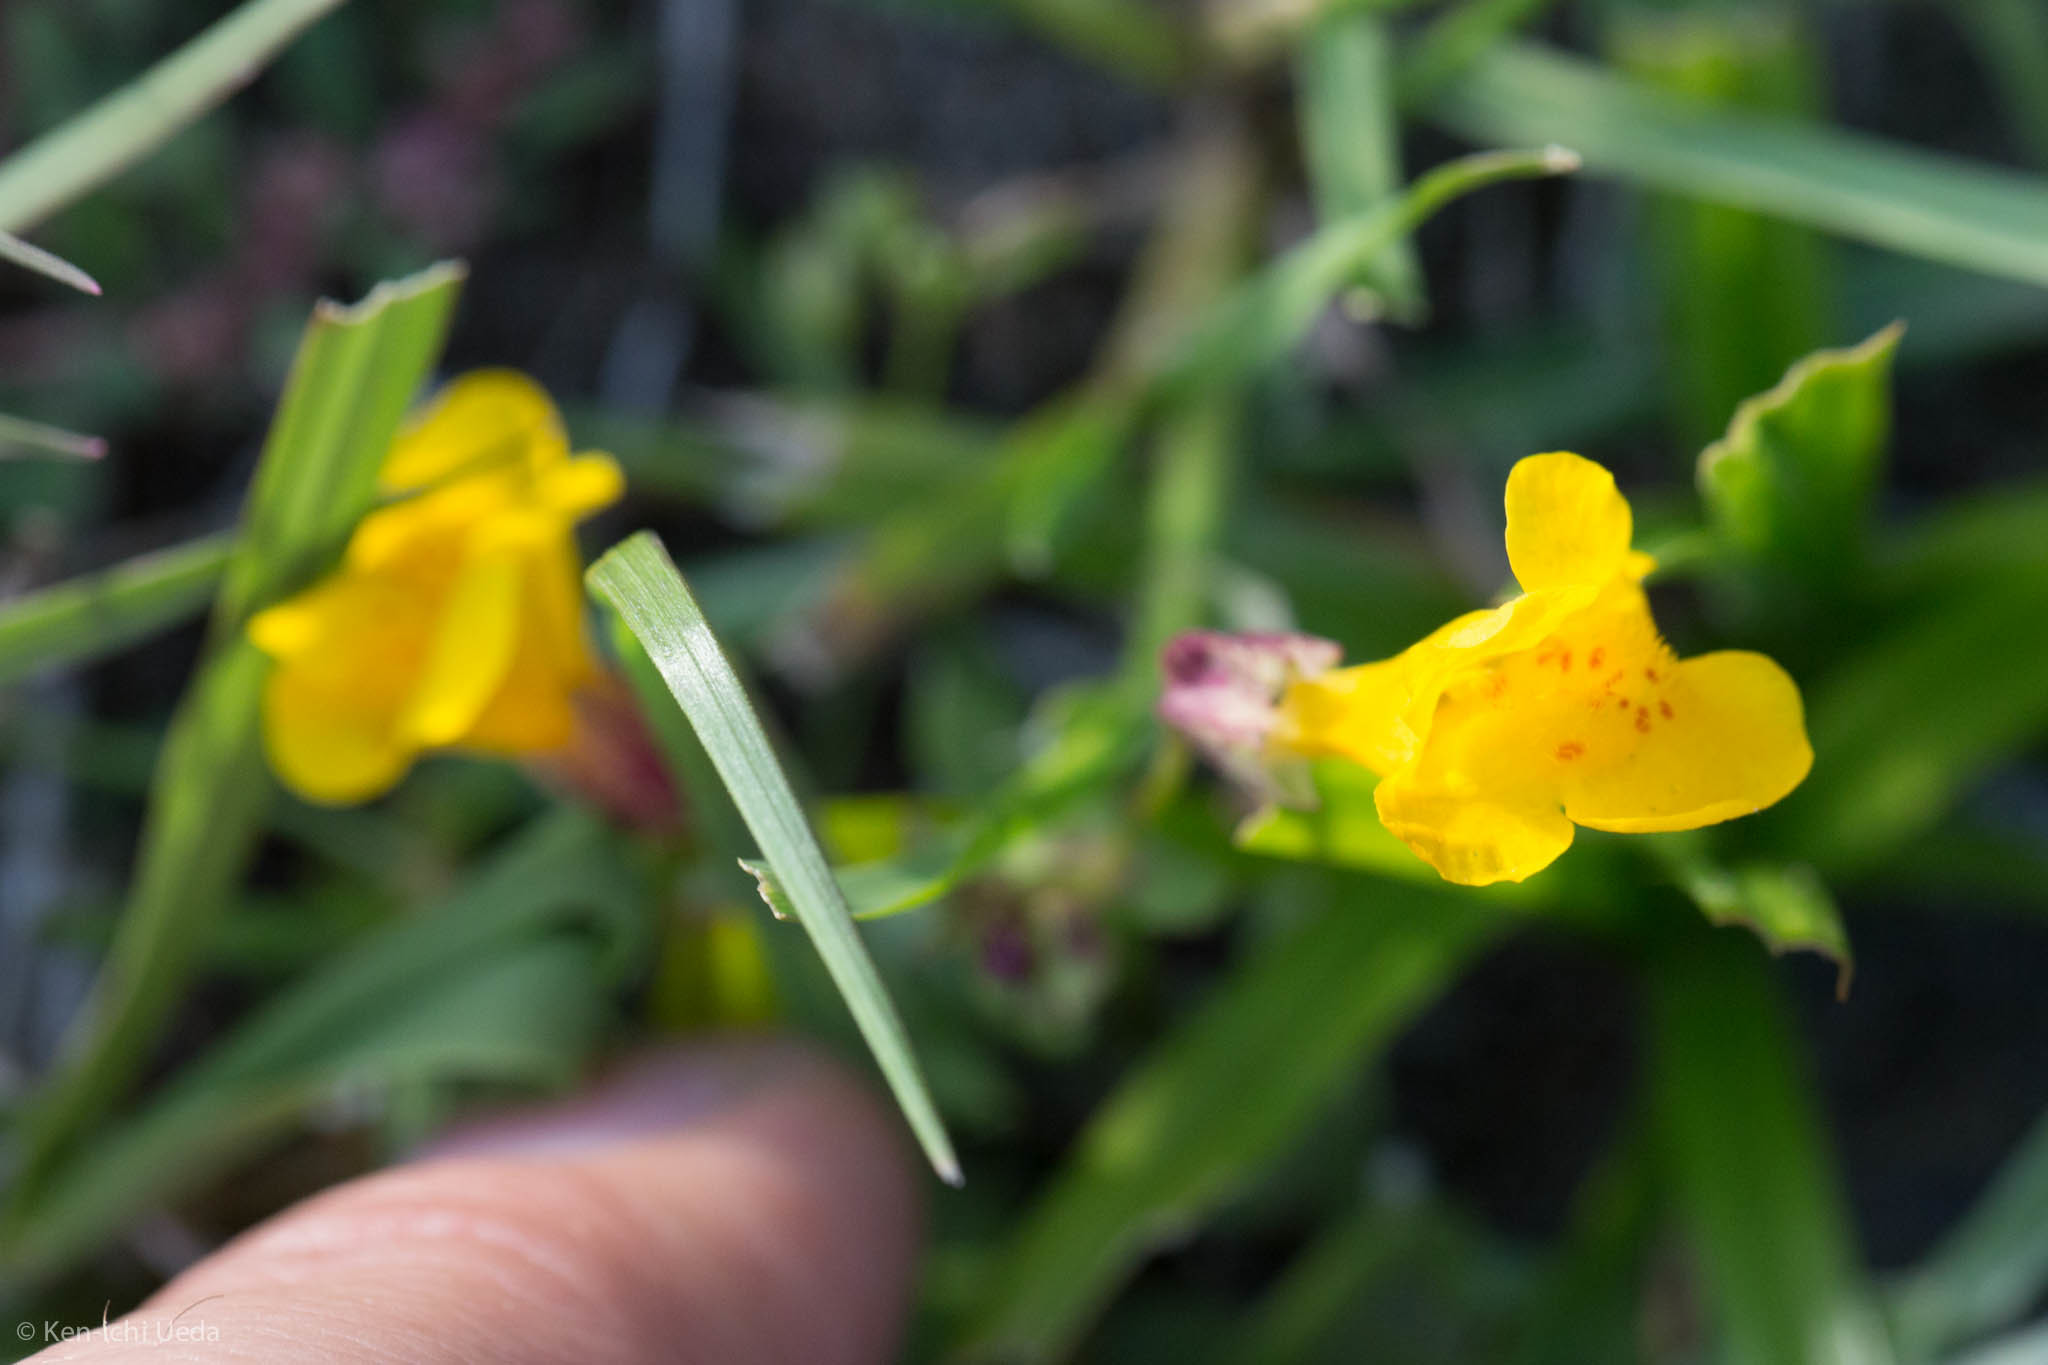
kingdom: Plantae
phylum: Tracheophyta
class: Magnoliopsida
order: Lamiales
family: Phrymaceae
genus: Erythranthe
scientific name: Erythranthe guttata
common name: Monkeyflower
